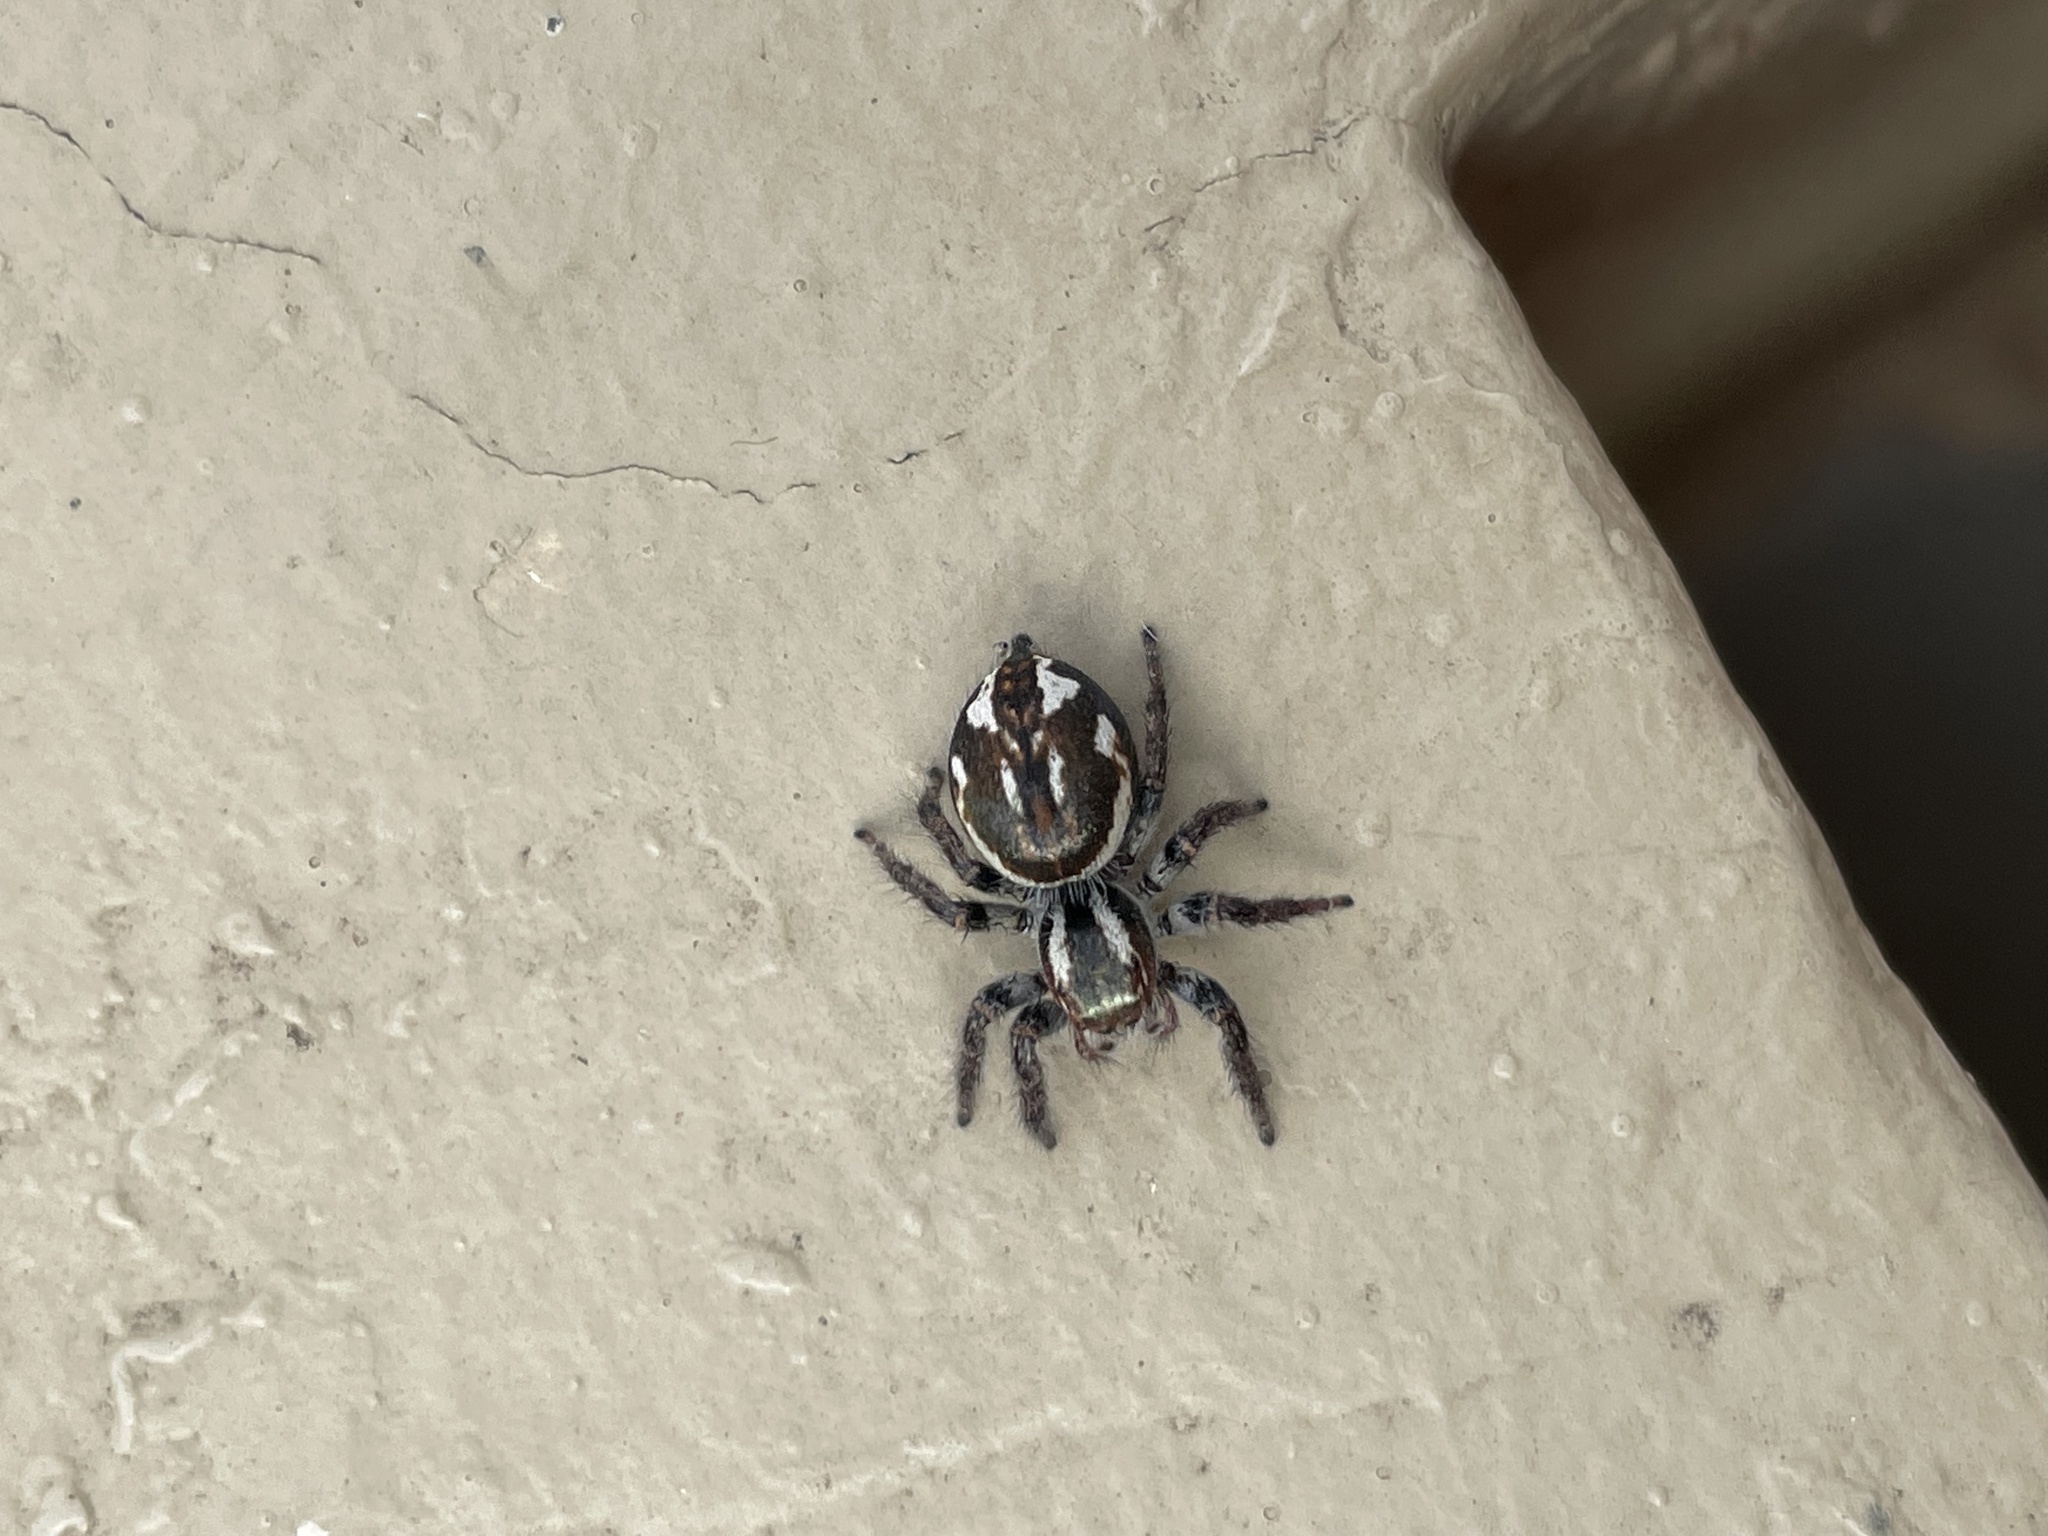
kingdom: Animalia
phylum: Arthropoda
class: Arachnida
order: Araneae
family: Salticidae
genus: Carrhotus
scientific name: Carrhotus viduus
